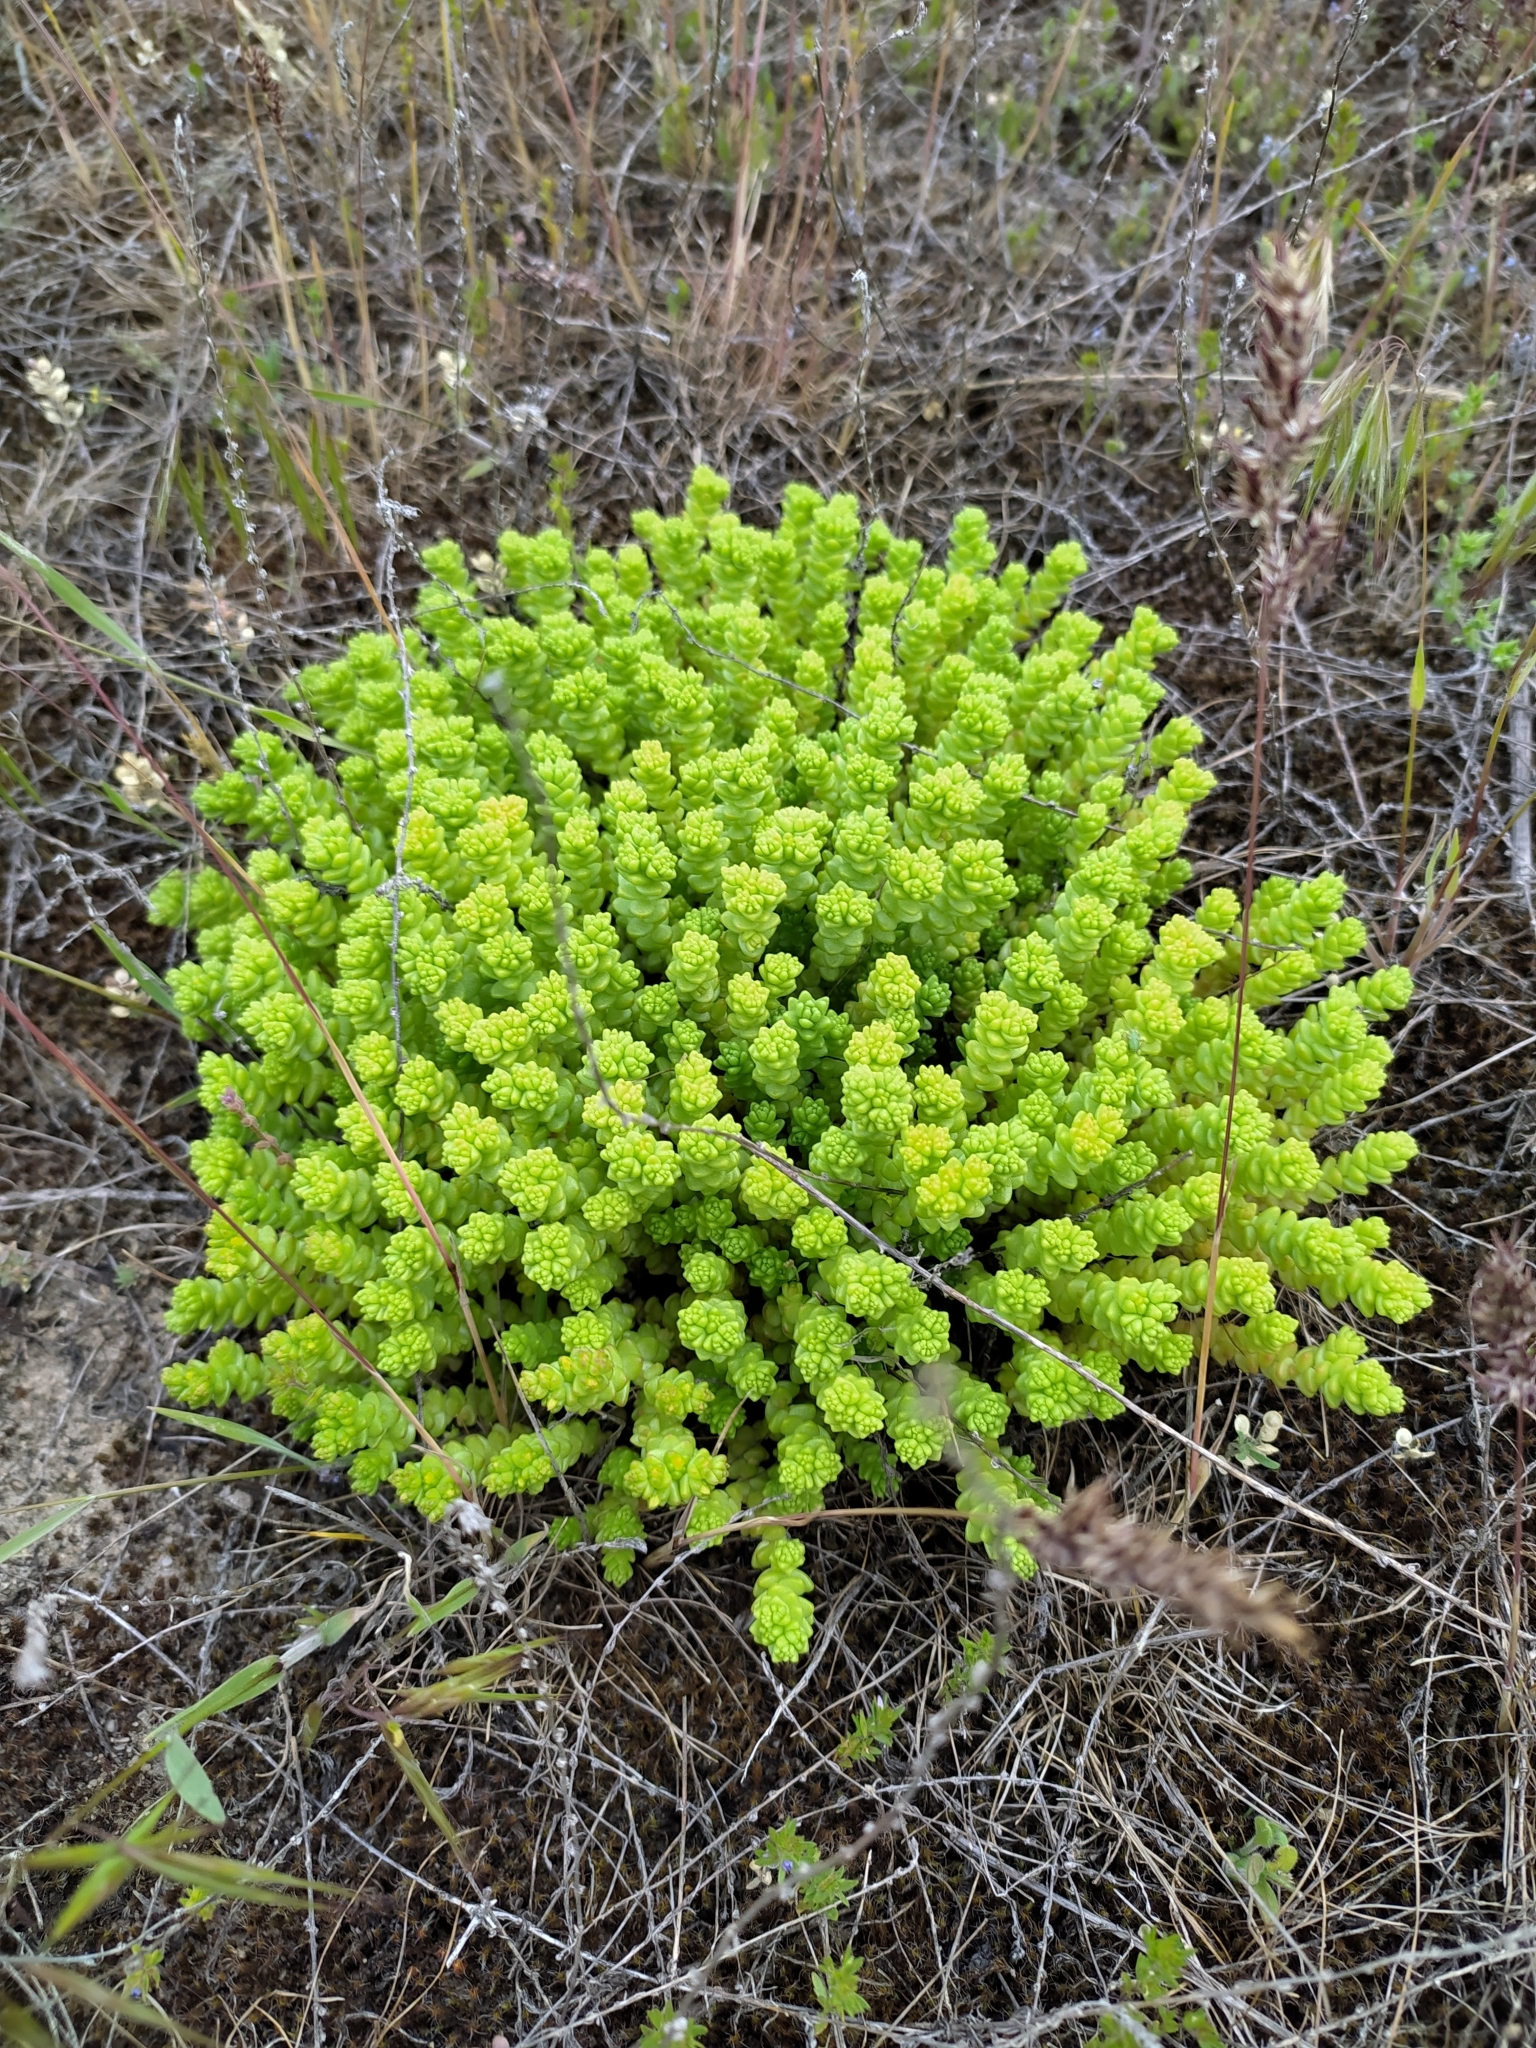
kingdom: Plantae
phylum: Tracheophyta
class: Magnoliopsida
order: Saxifragales
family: Crassulaceae
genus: Sedum
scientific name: Sedum acre
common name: Biting stonecrop
